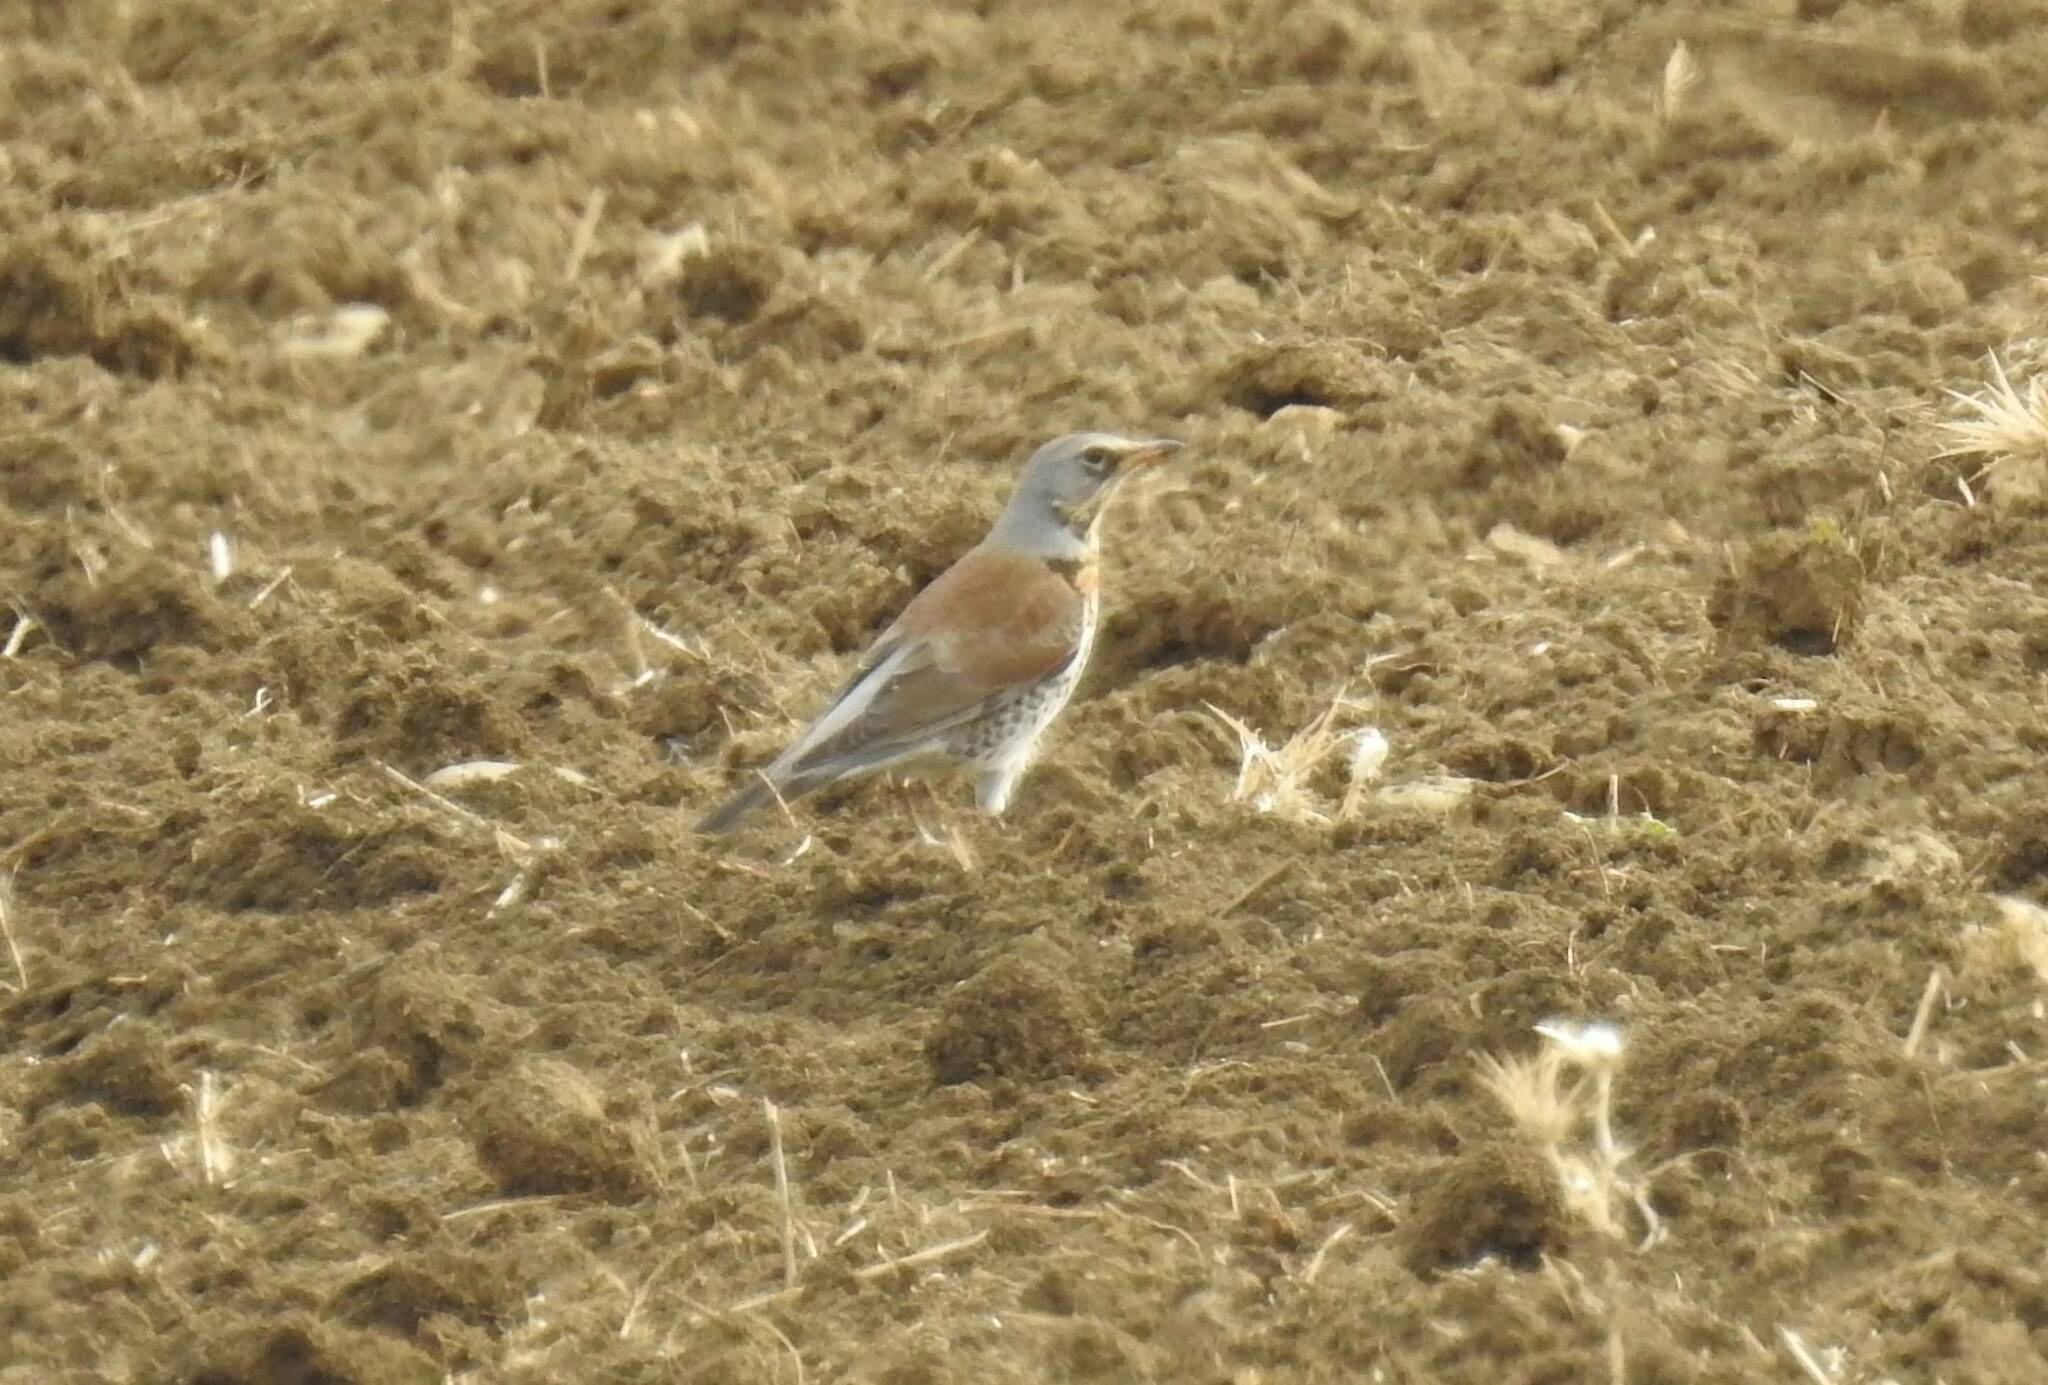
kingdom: Animalia
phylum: Chordata
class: Aves
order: Passeriformes
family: Turdidae
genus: Turdus
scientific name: Turdus pilaris
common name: Fieldfare
